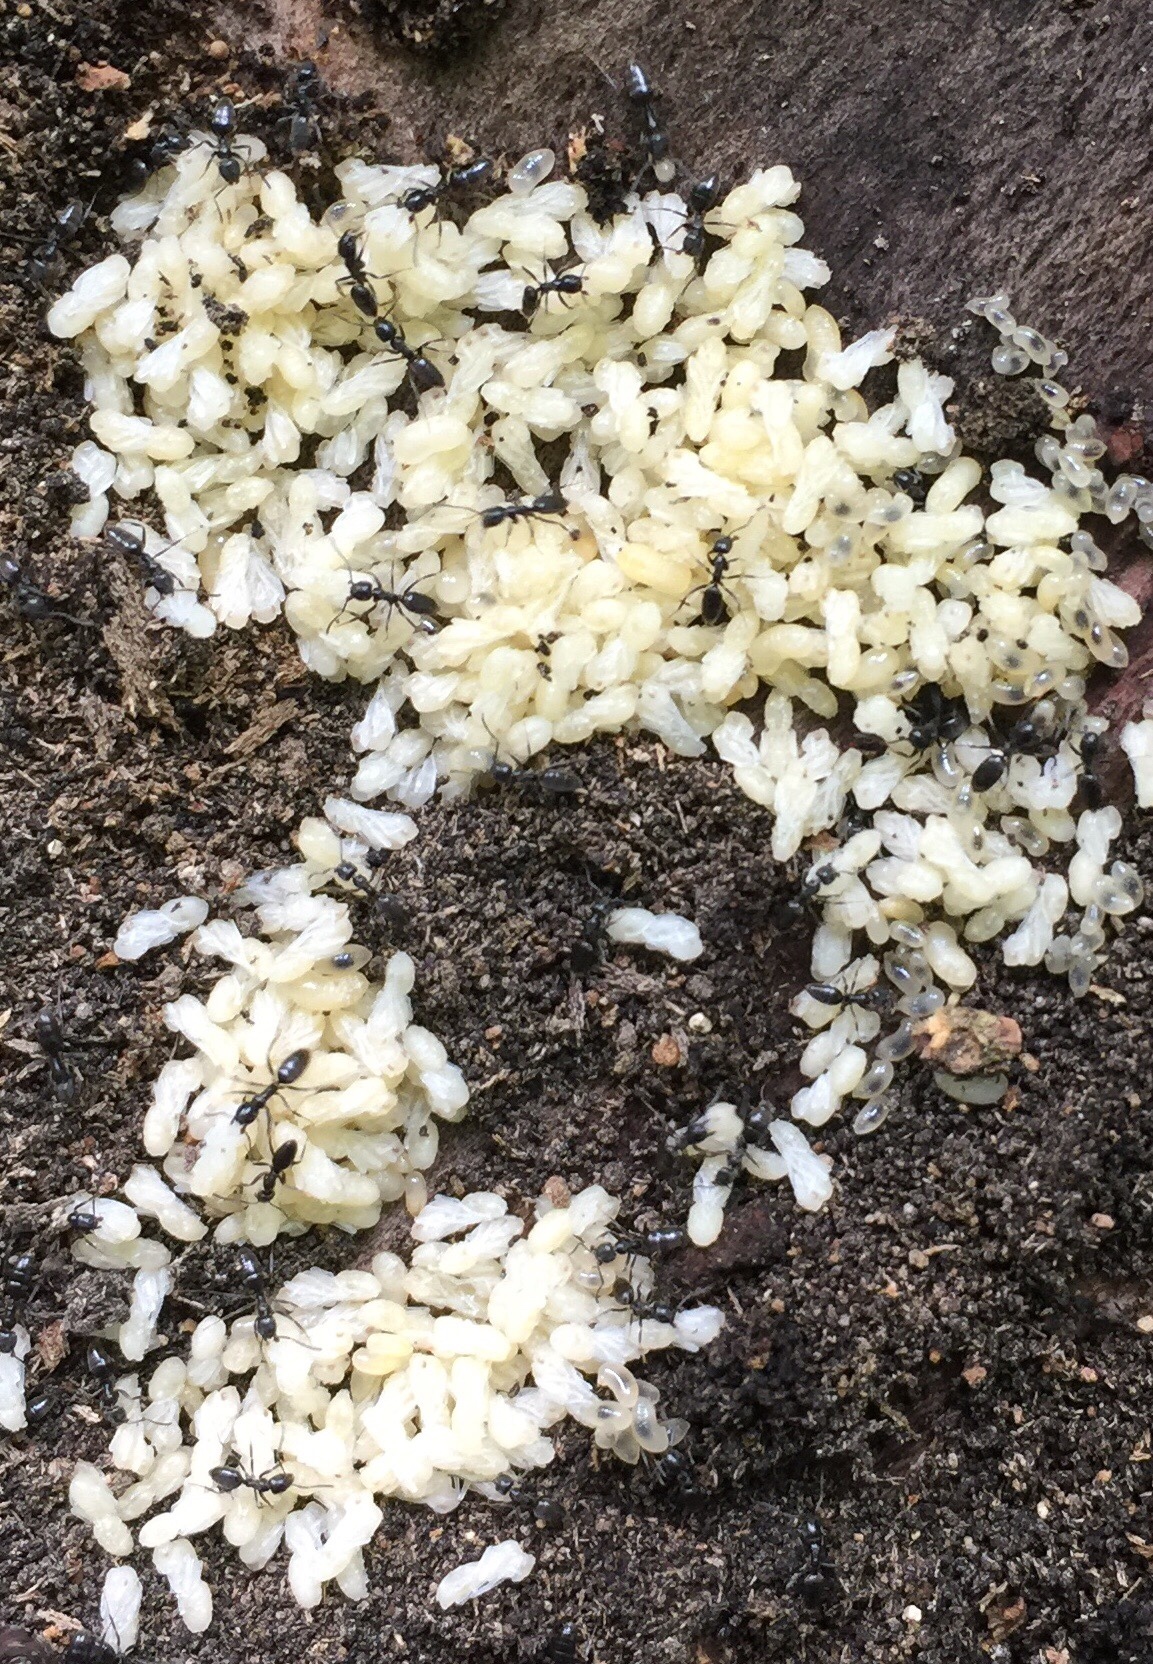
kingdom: Animalia
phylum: Arthropoda
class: Insecta
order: Hymenoptera
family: Formicidae
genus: Tapinoma
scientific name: Tapinoma sessile
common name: Odorous house ant
